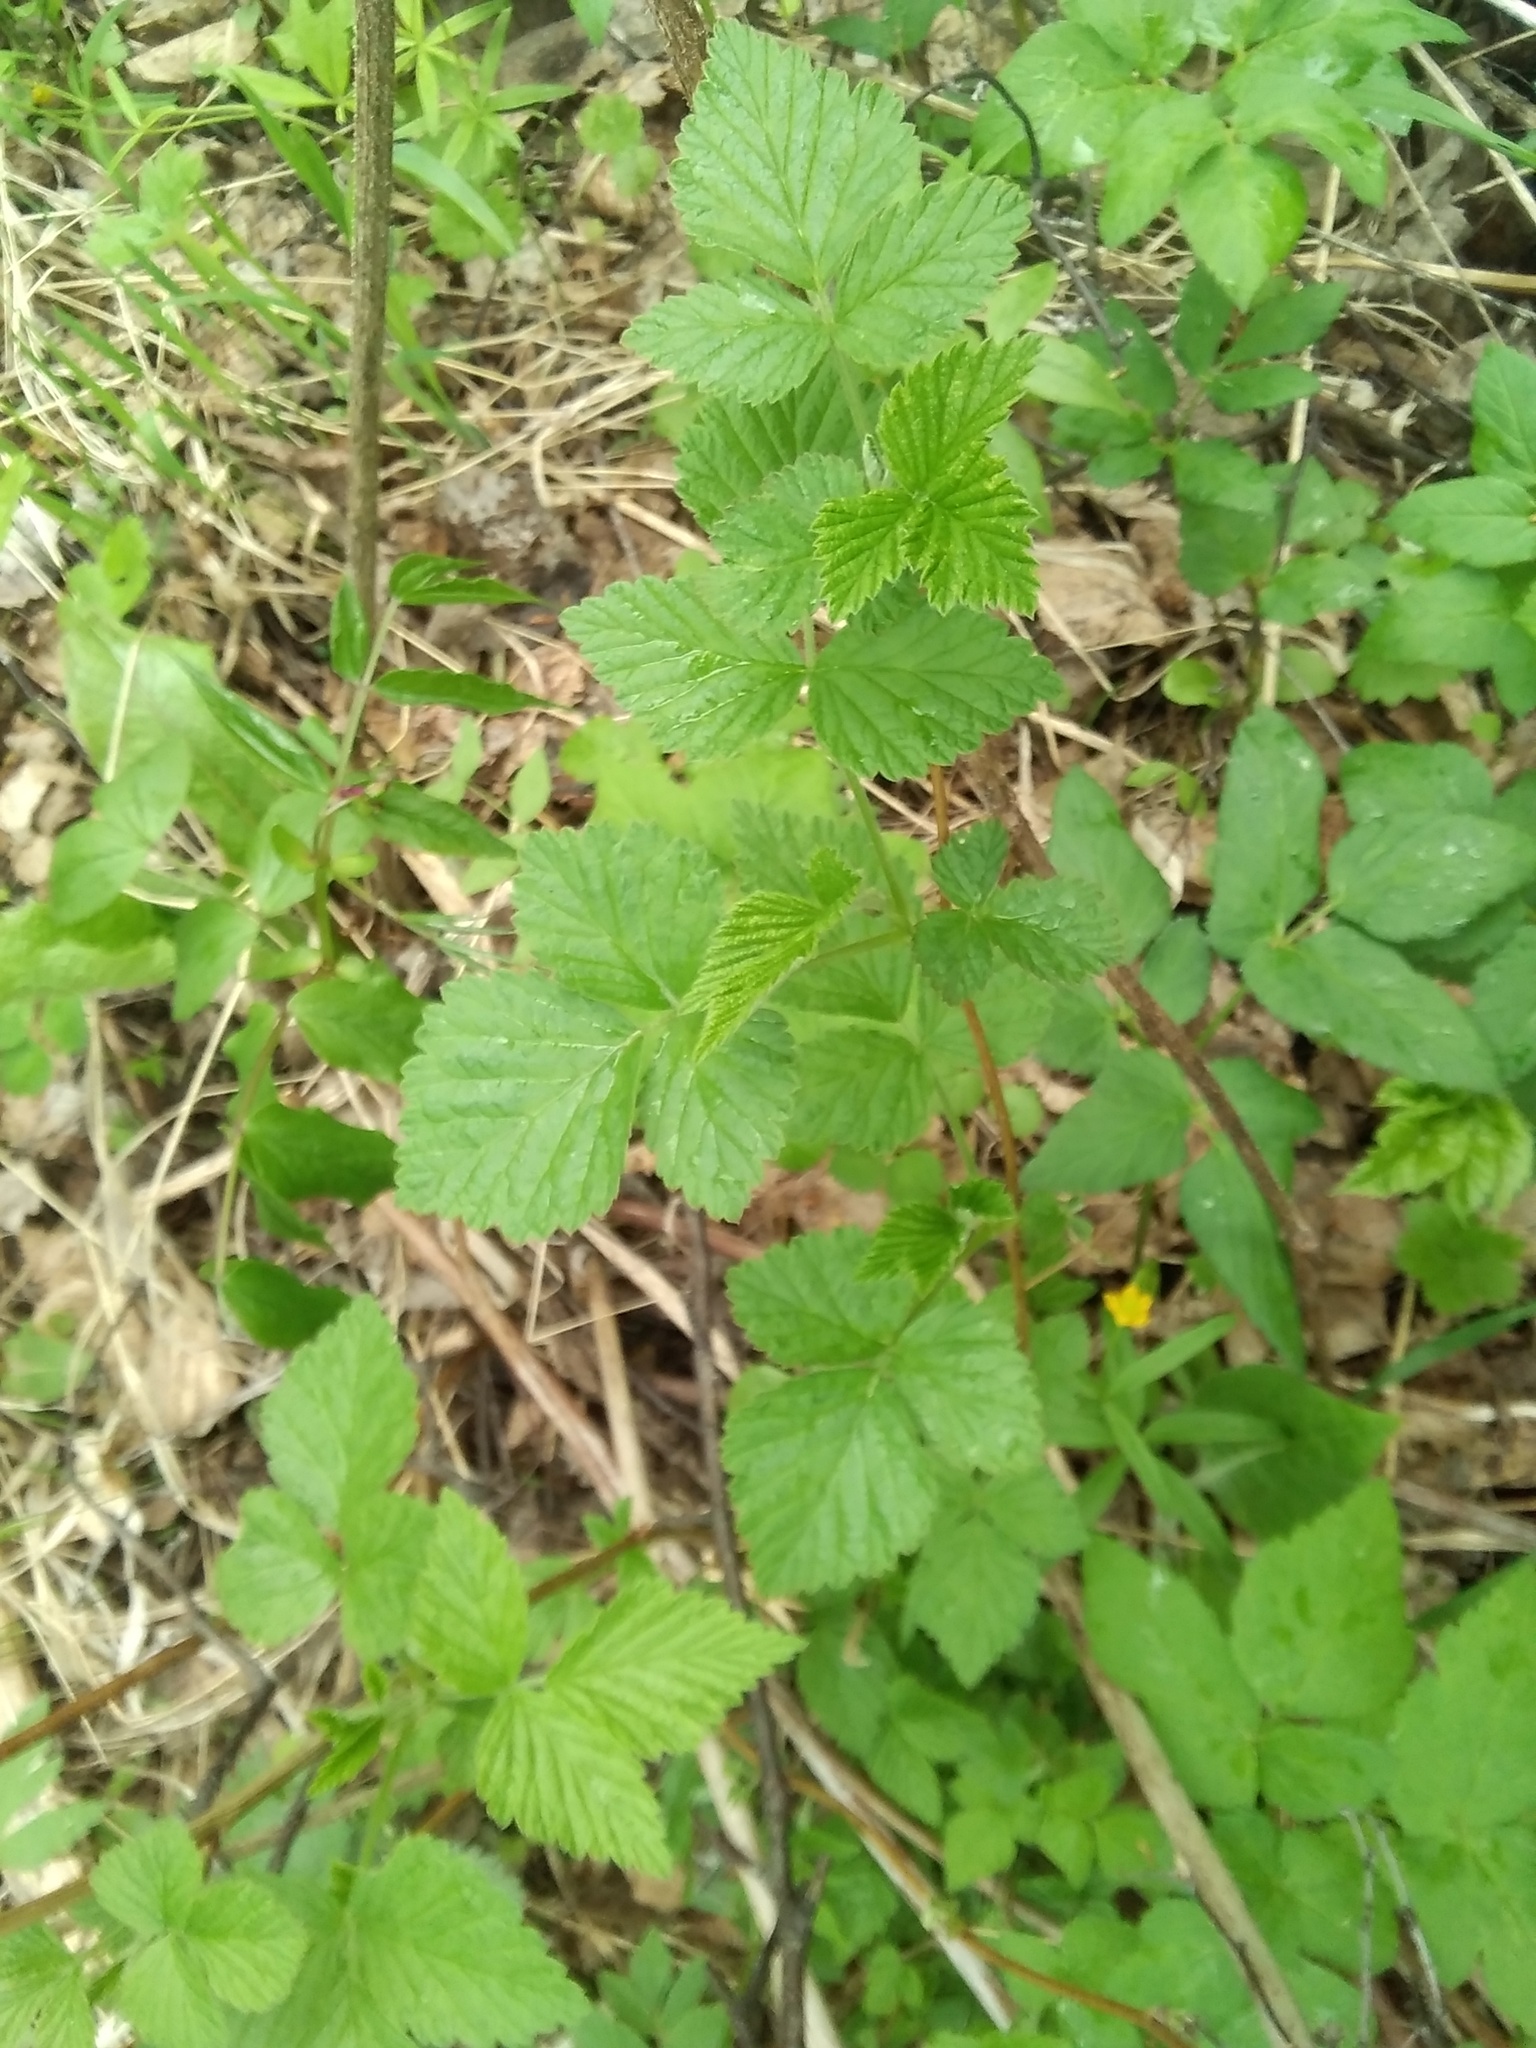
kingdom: Plantae
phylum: Tracheophyta
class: Magnoliopsida
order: Rosales
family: Rosaceae
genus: Rubus
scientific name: Rubus idaeus
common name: Raspberry
